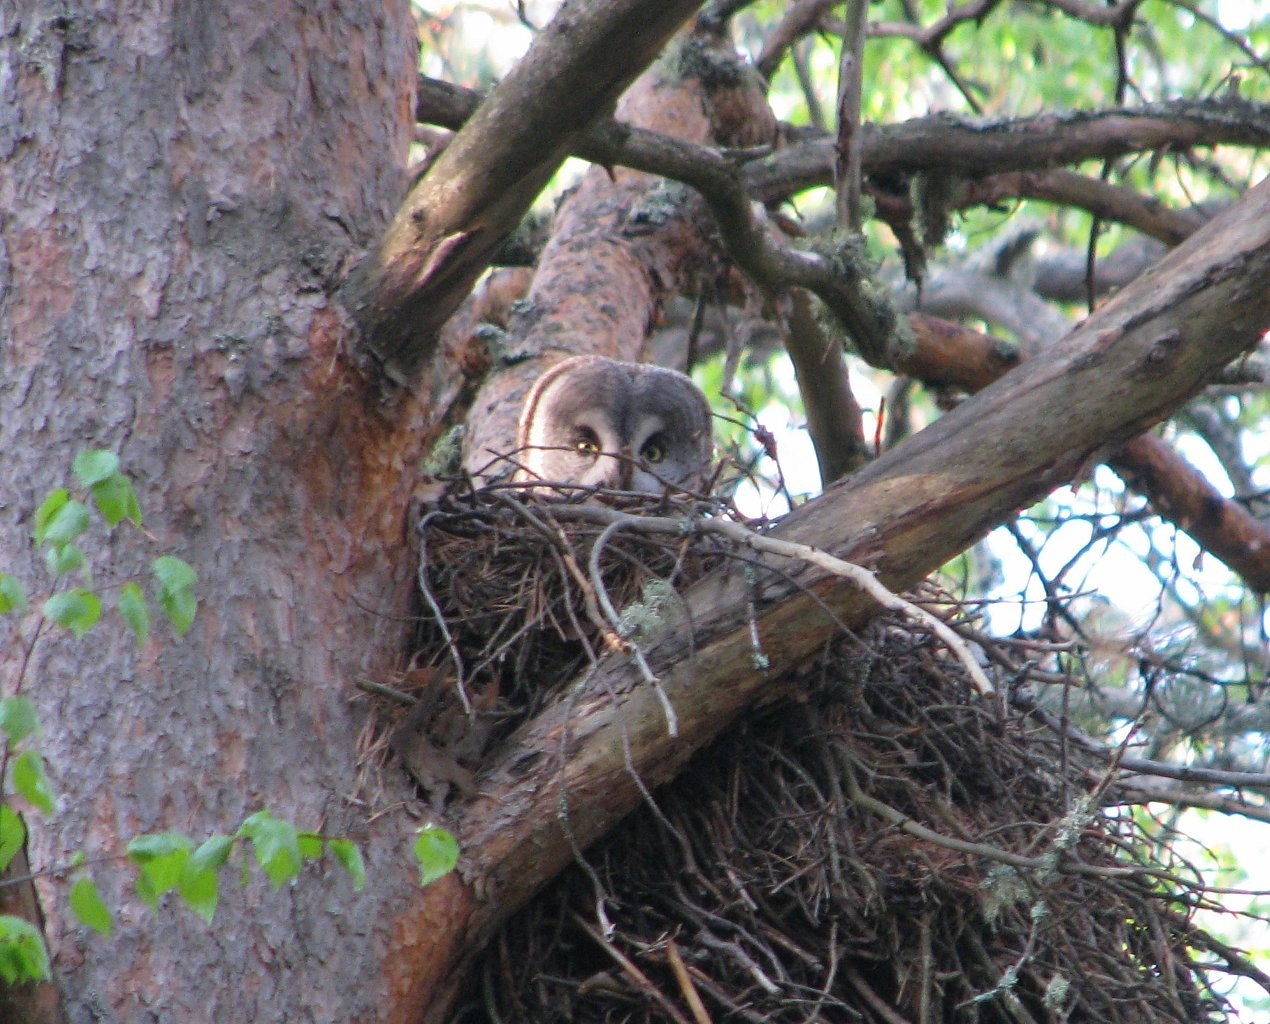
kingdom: Animalia
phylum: Chordata
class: Aves
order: Strigiformes
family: Strigidae
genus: Strix
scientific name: Strix nebulosa
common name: Great grey owl
